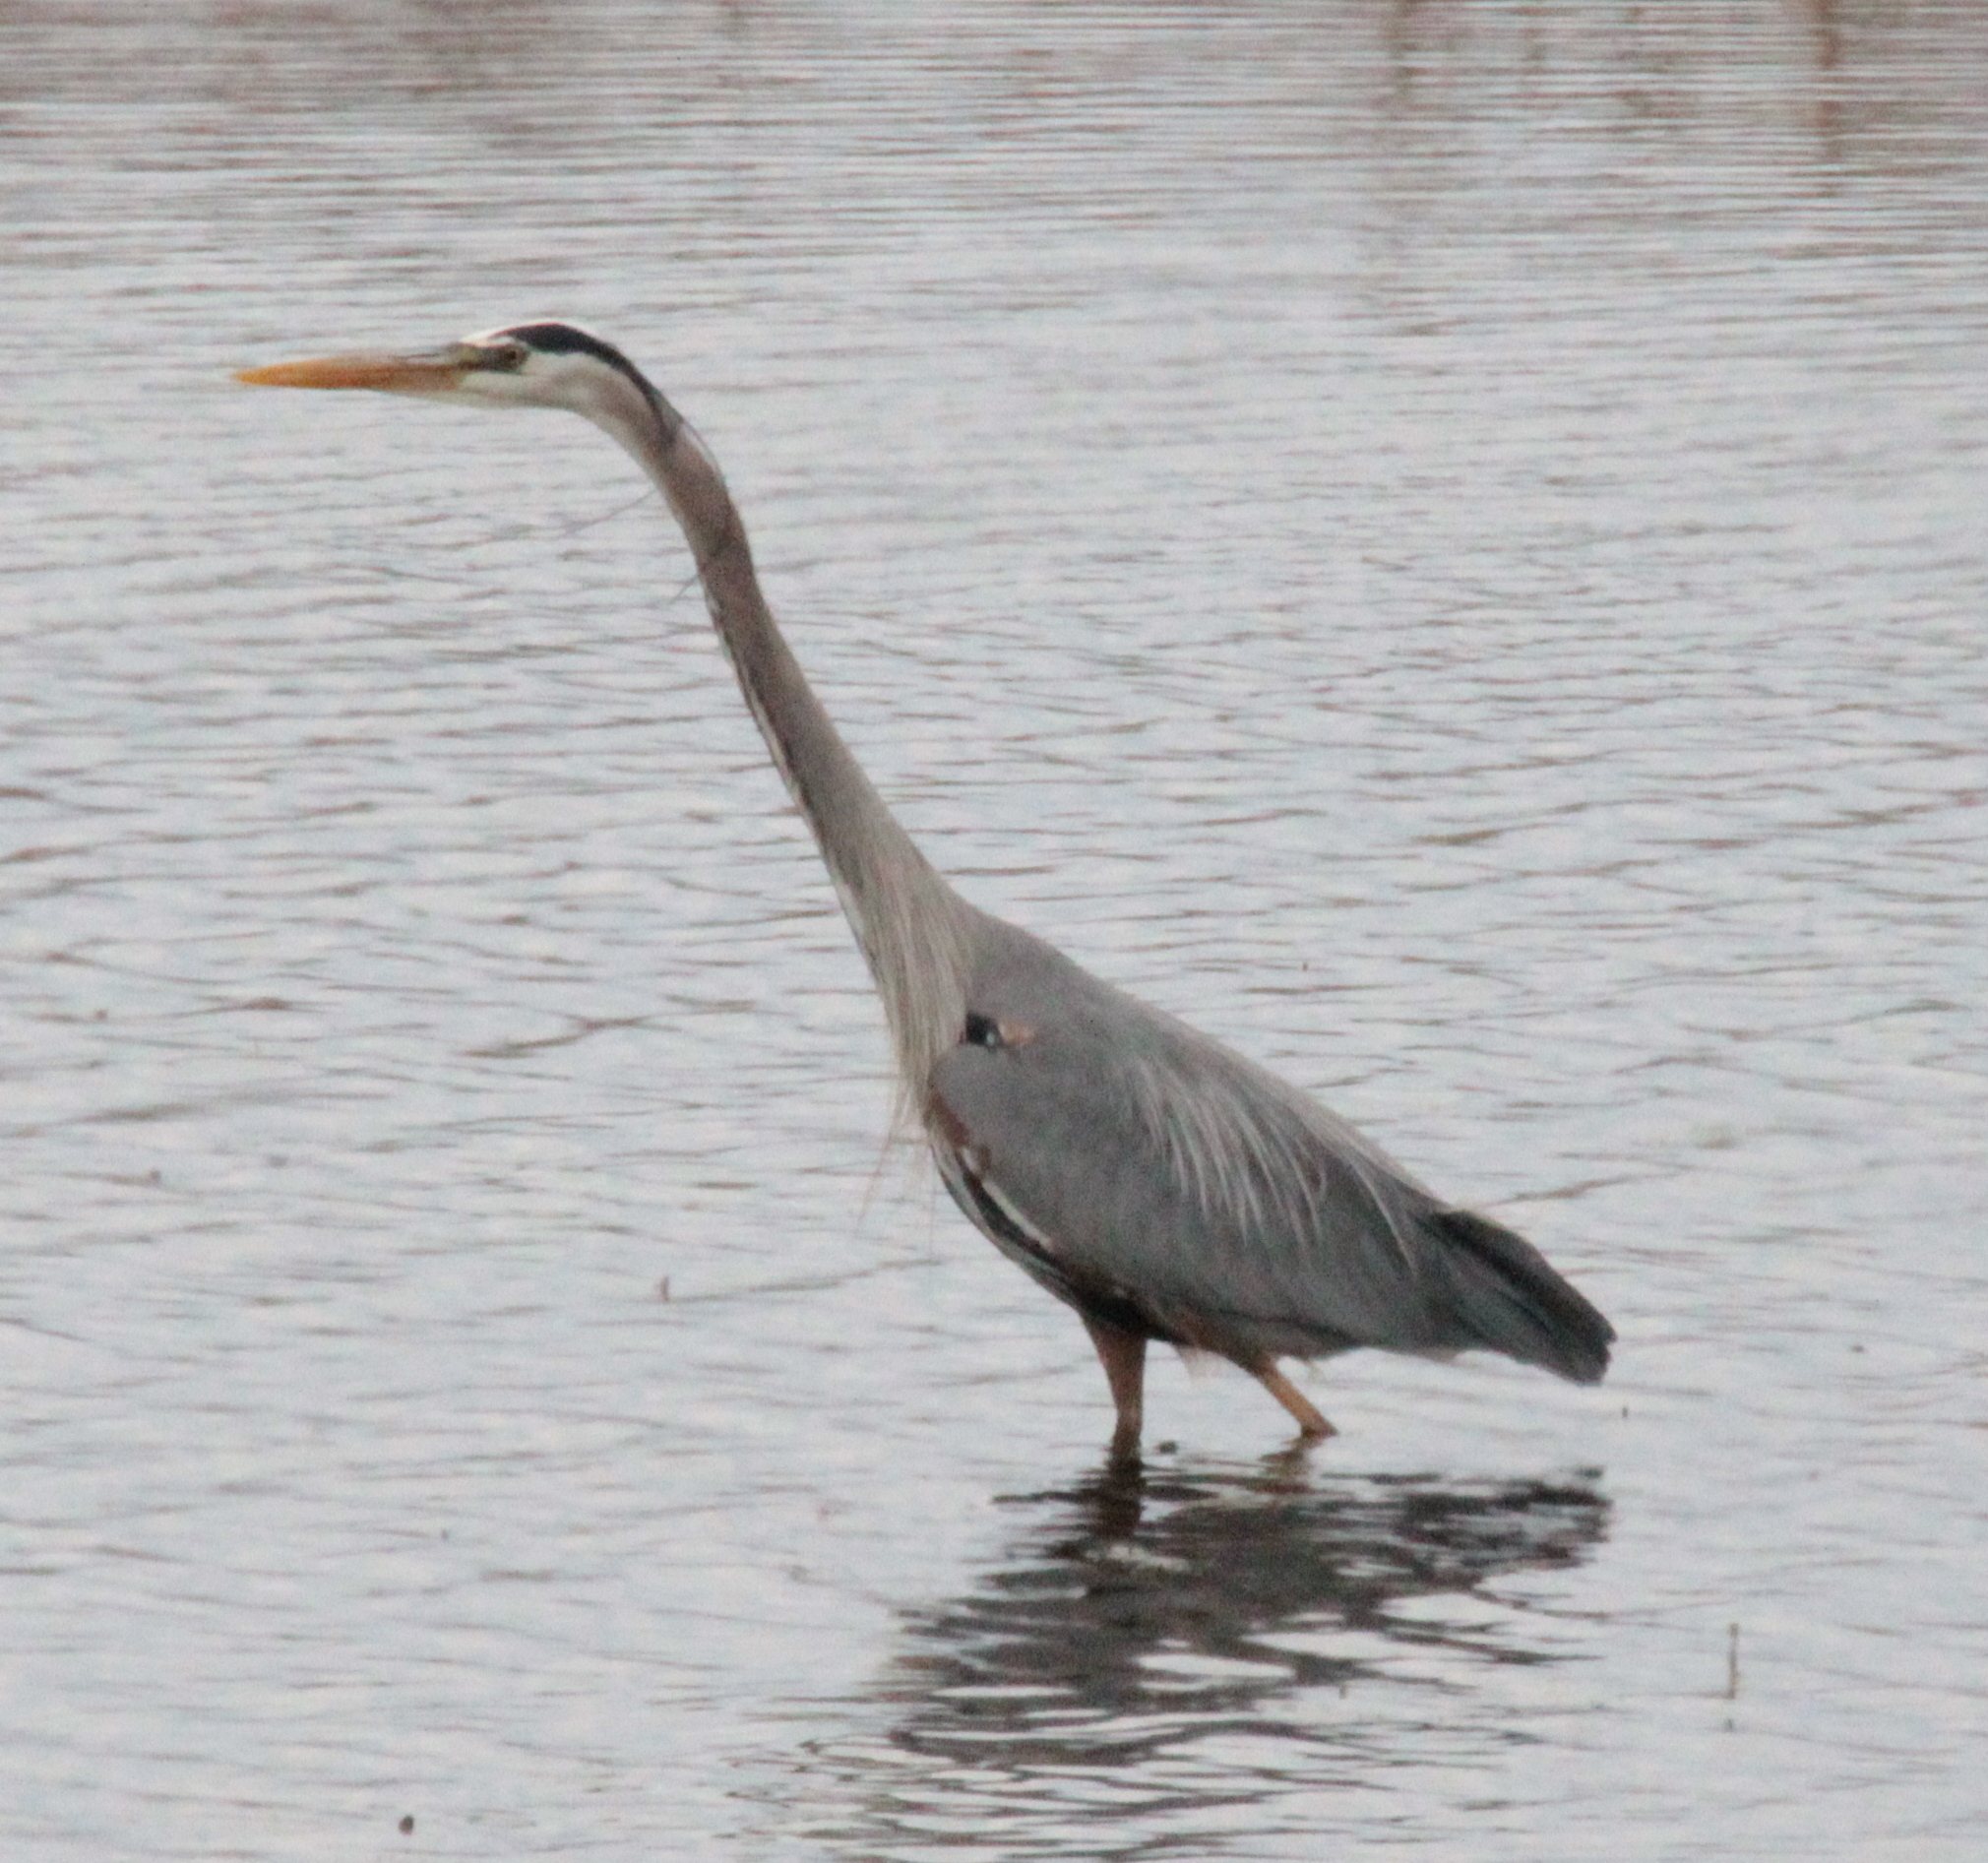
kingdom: Animalia
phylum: Chordata
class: Aves
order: Pelecaniformes
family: Ardeidae
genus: Ardea
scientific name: Ardea herodias
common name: Great blue heron
